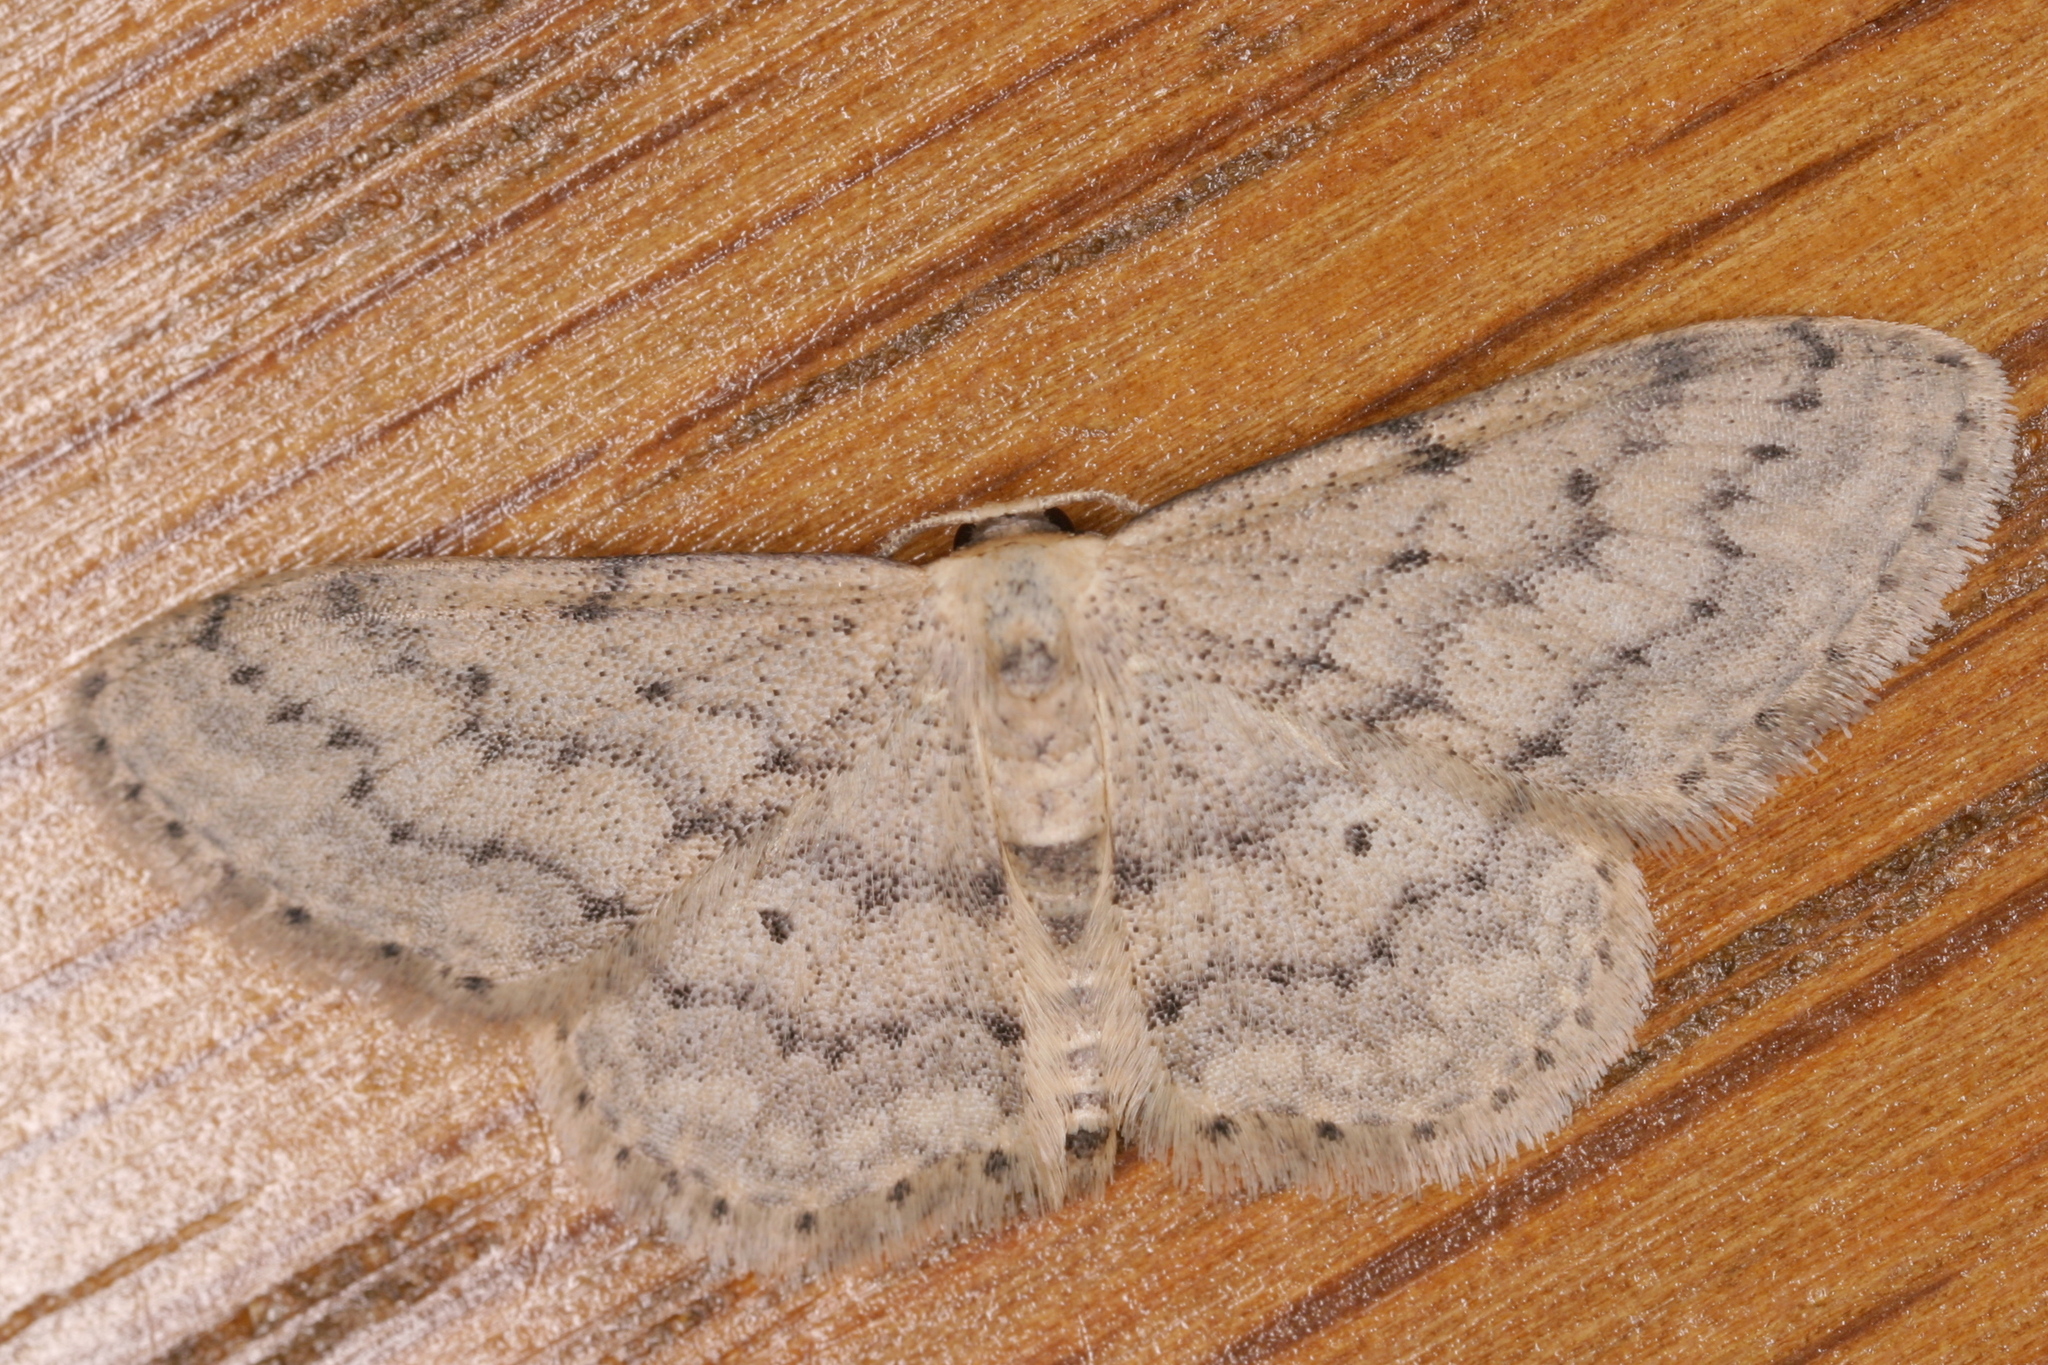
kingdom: Animalia
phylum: Arthropoda
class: Insecta
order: Lepidoptera
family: Geometridae
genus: Idaea
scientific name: Idaea seriata
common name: Small dusty wave
